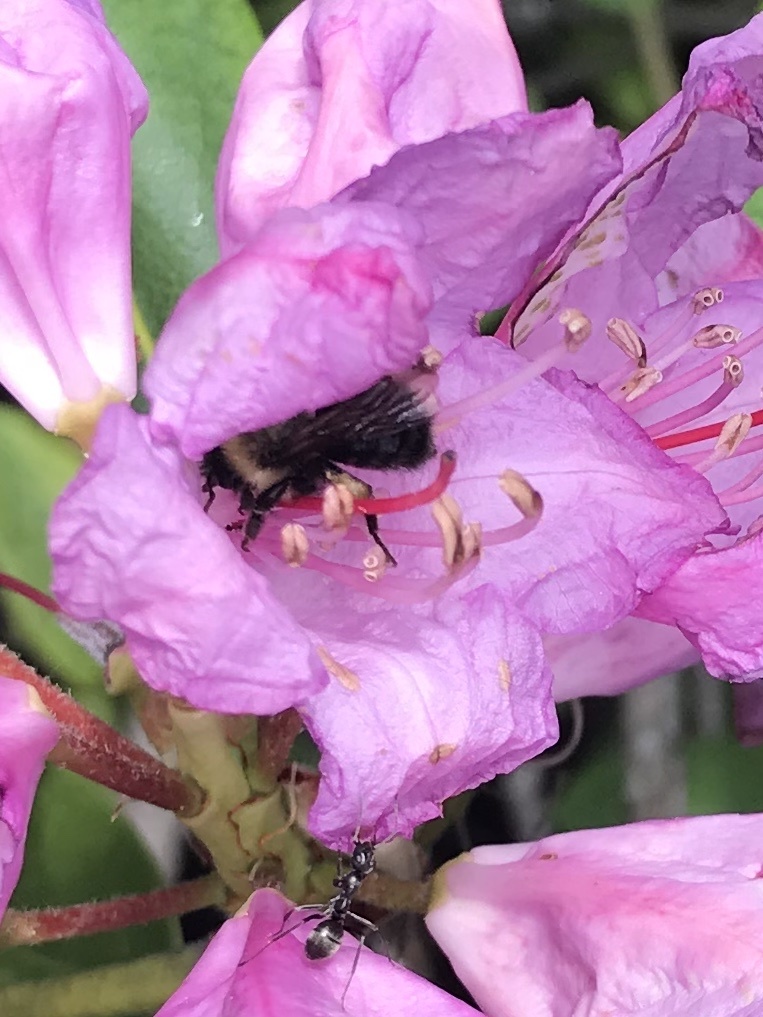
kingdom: Animalia
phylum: Arthropoda
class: Insecta
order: Hymenoptera
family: Apidae
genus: Bombus
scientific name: Bombus bimaculatus
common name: Two-spotted bumble bee
